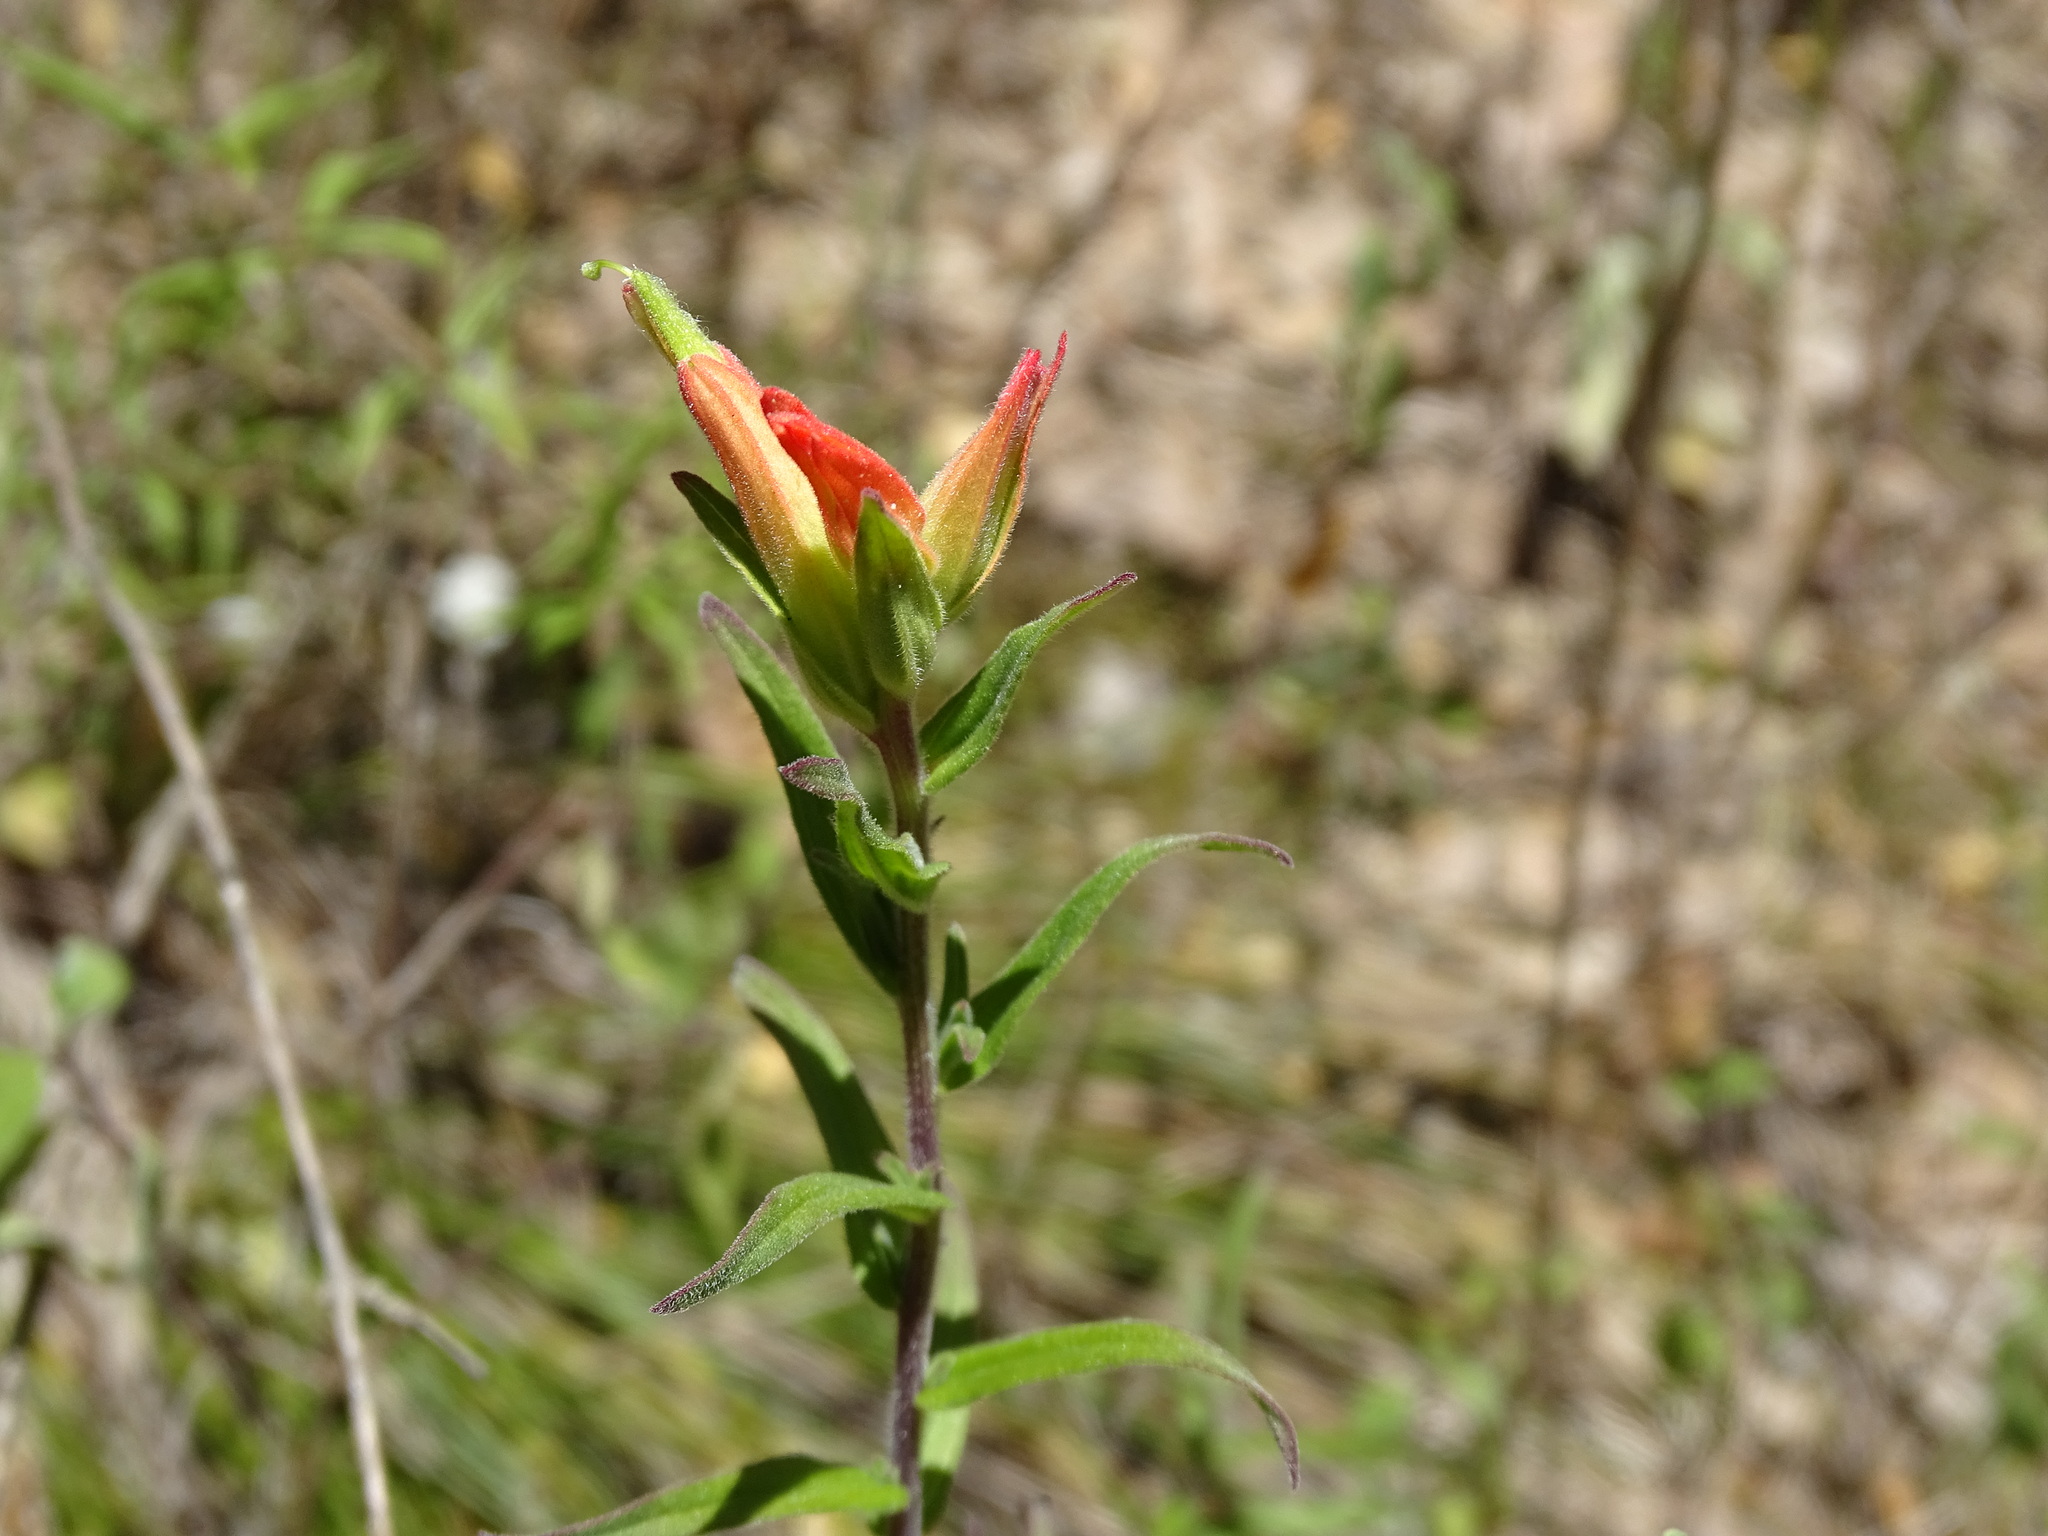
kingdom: Plantae
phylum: Tracheophyta
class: Magnoliopsida
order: Lamiales
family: Orobanchaceae
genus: Castilleja
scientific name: Castilleja tenuiflora
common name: Santa catalina indian paintbrush
